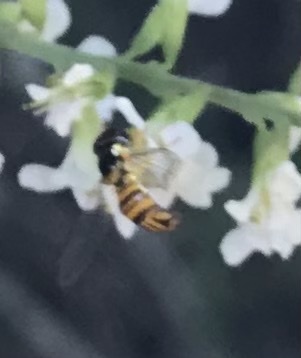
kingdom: Animalia
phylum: Arthropoda
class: Insecta
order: Diptera
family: Syrphidae
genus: Allograpta
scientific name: Allograpta obliqua
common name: Common oblique syrphid
